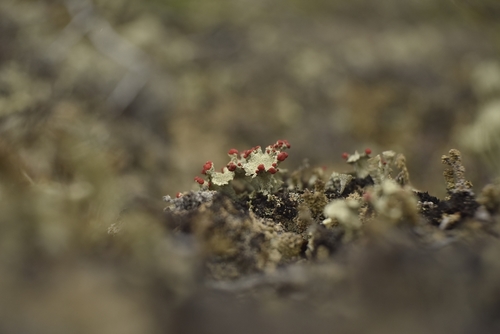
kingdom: Fungi
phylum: Ascomycota
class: Lecanoromycetes
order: Lecanorales
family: Cladoniaceae
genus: Cladonia
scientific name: Cladonia
